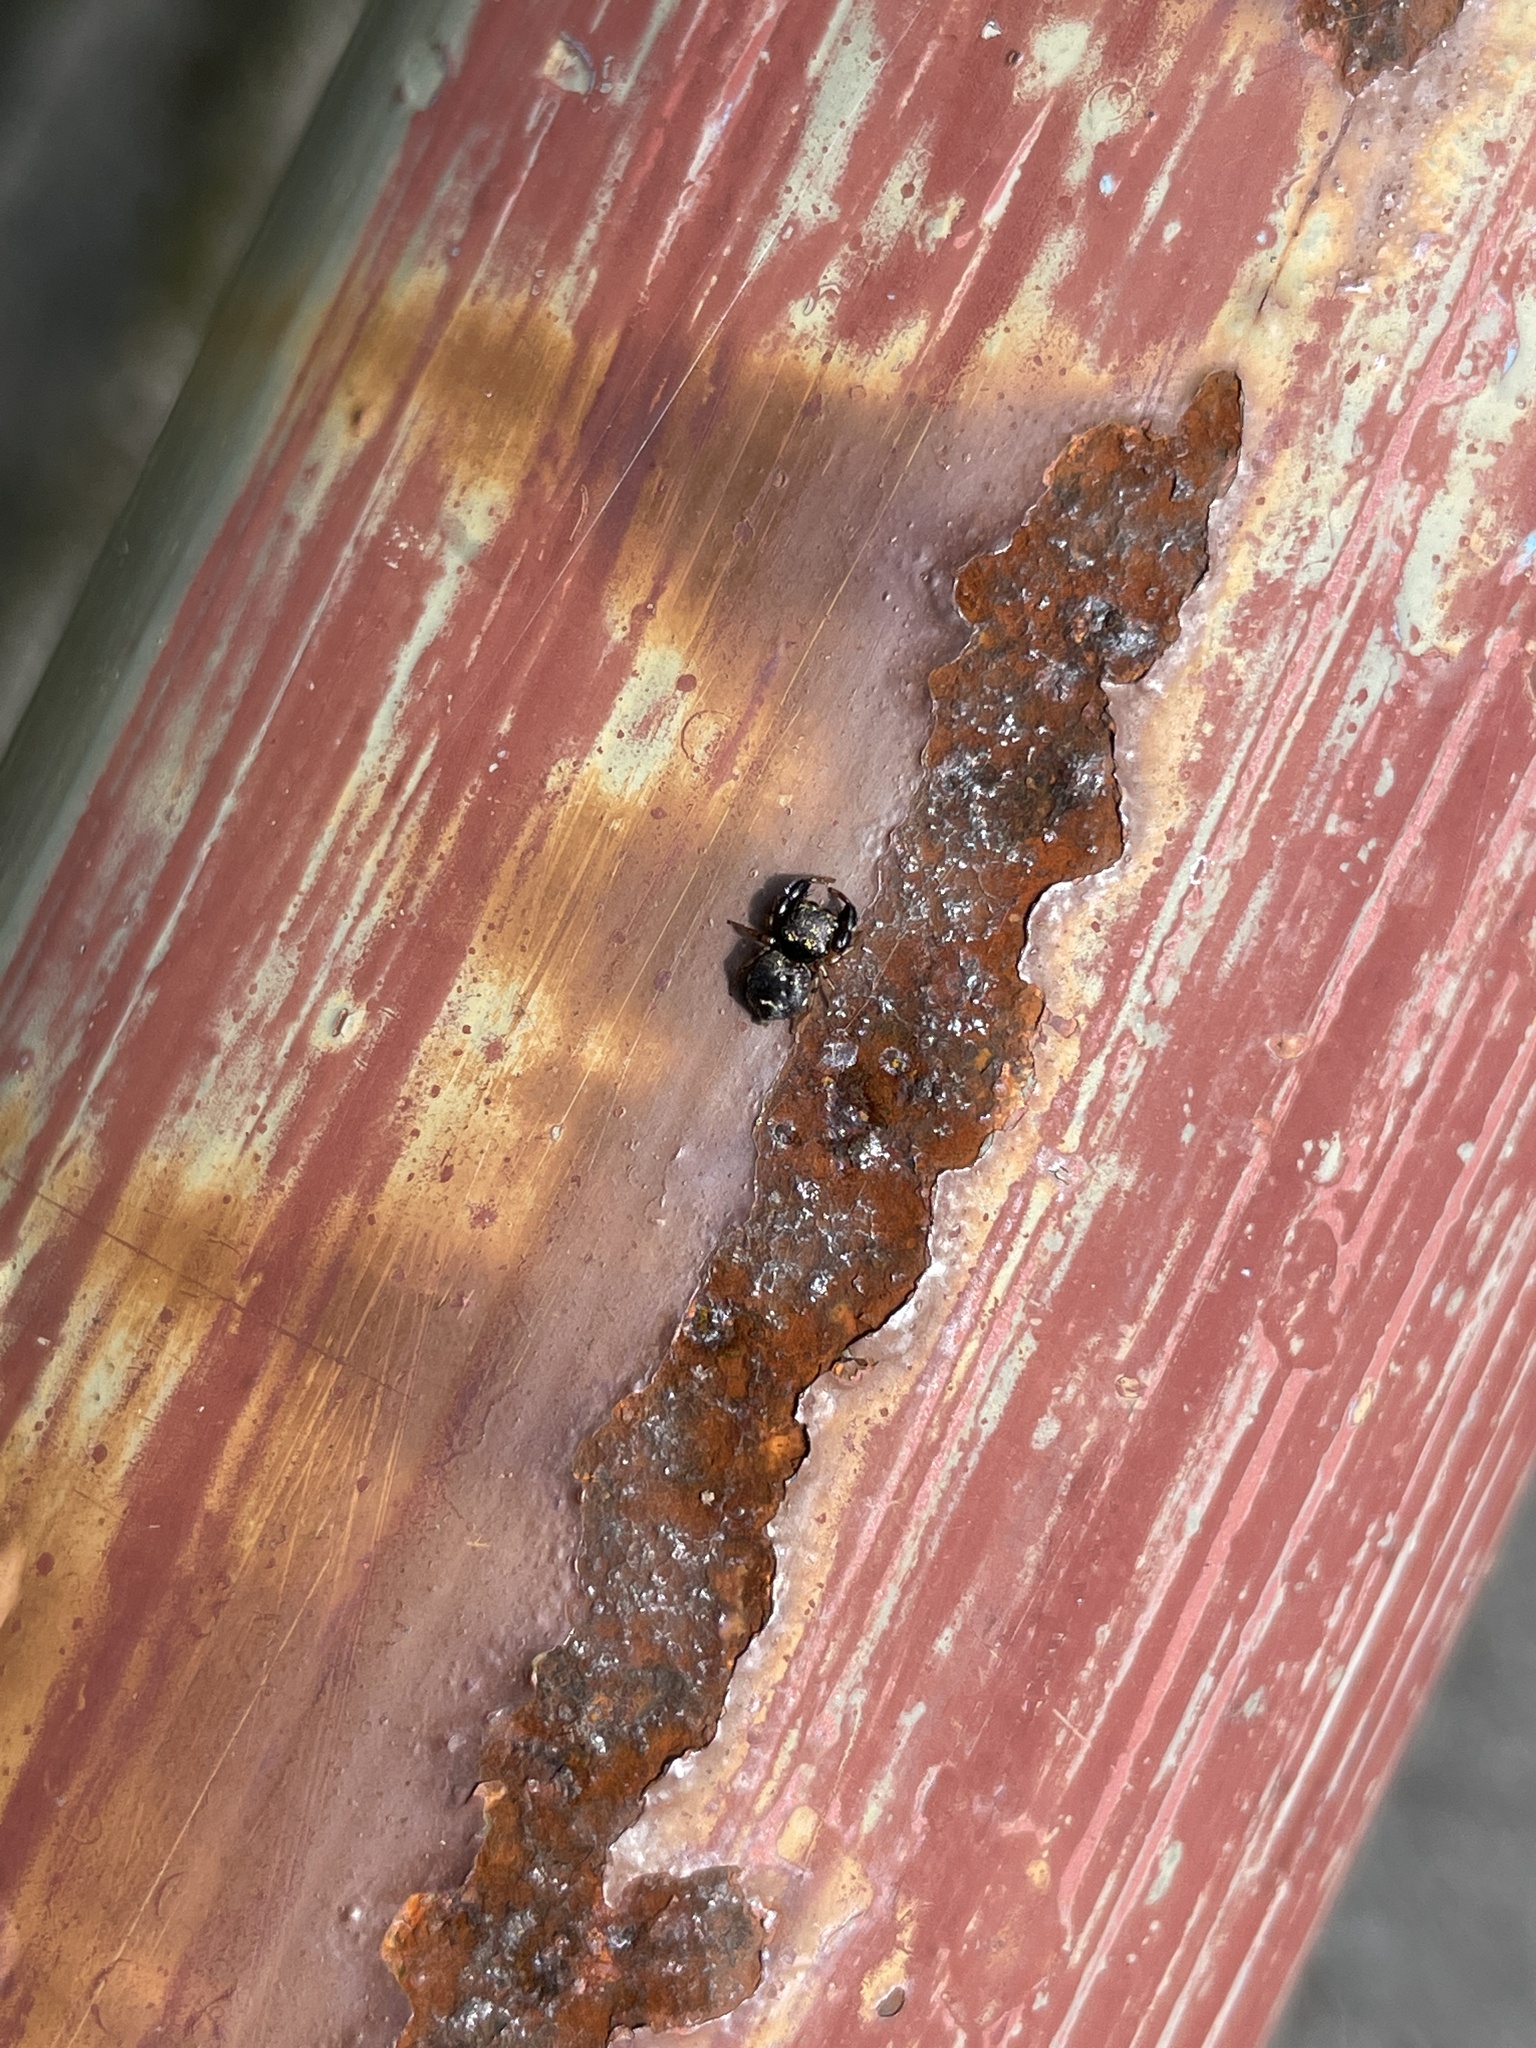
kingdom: Animalia
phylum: Arthropoda
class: Arachnida
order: Araneae
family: Salticidae
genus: Harmochirus
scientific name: Harmochirus insulanus
